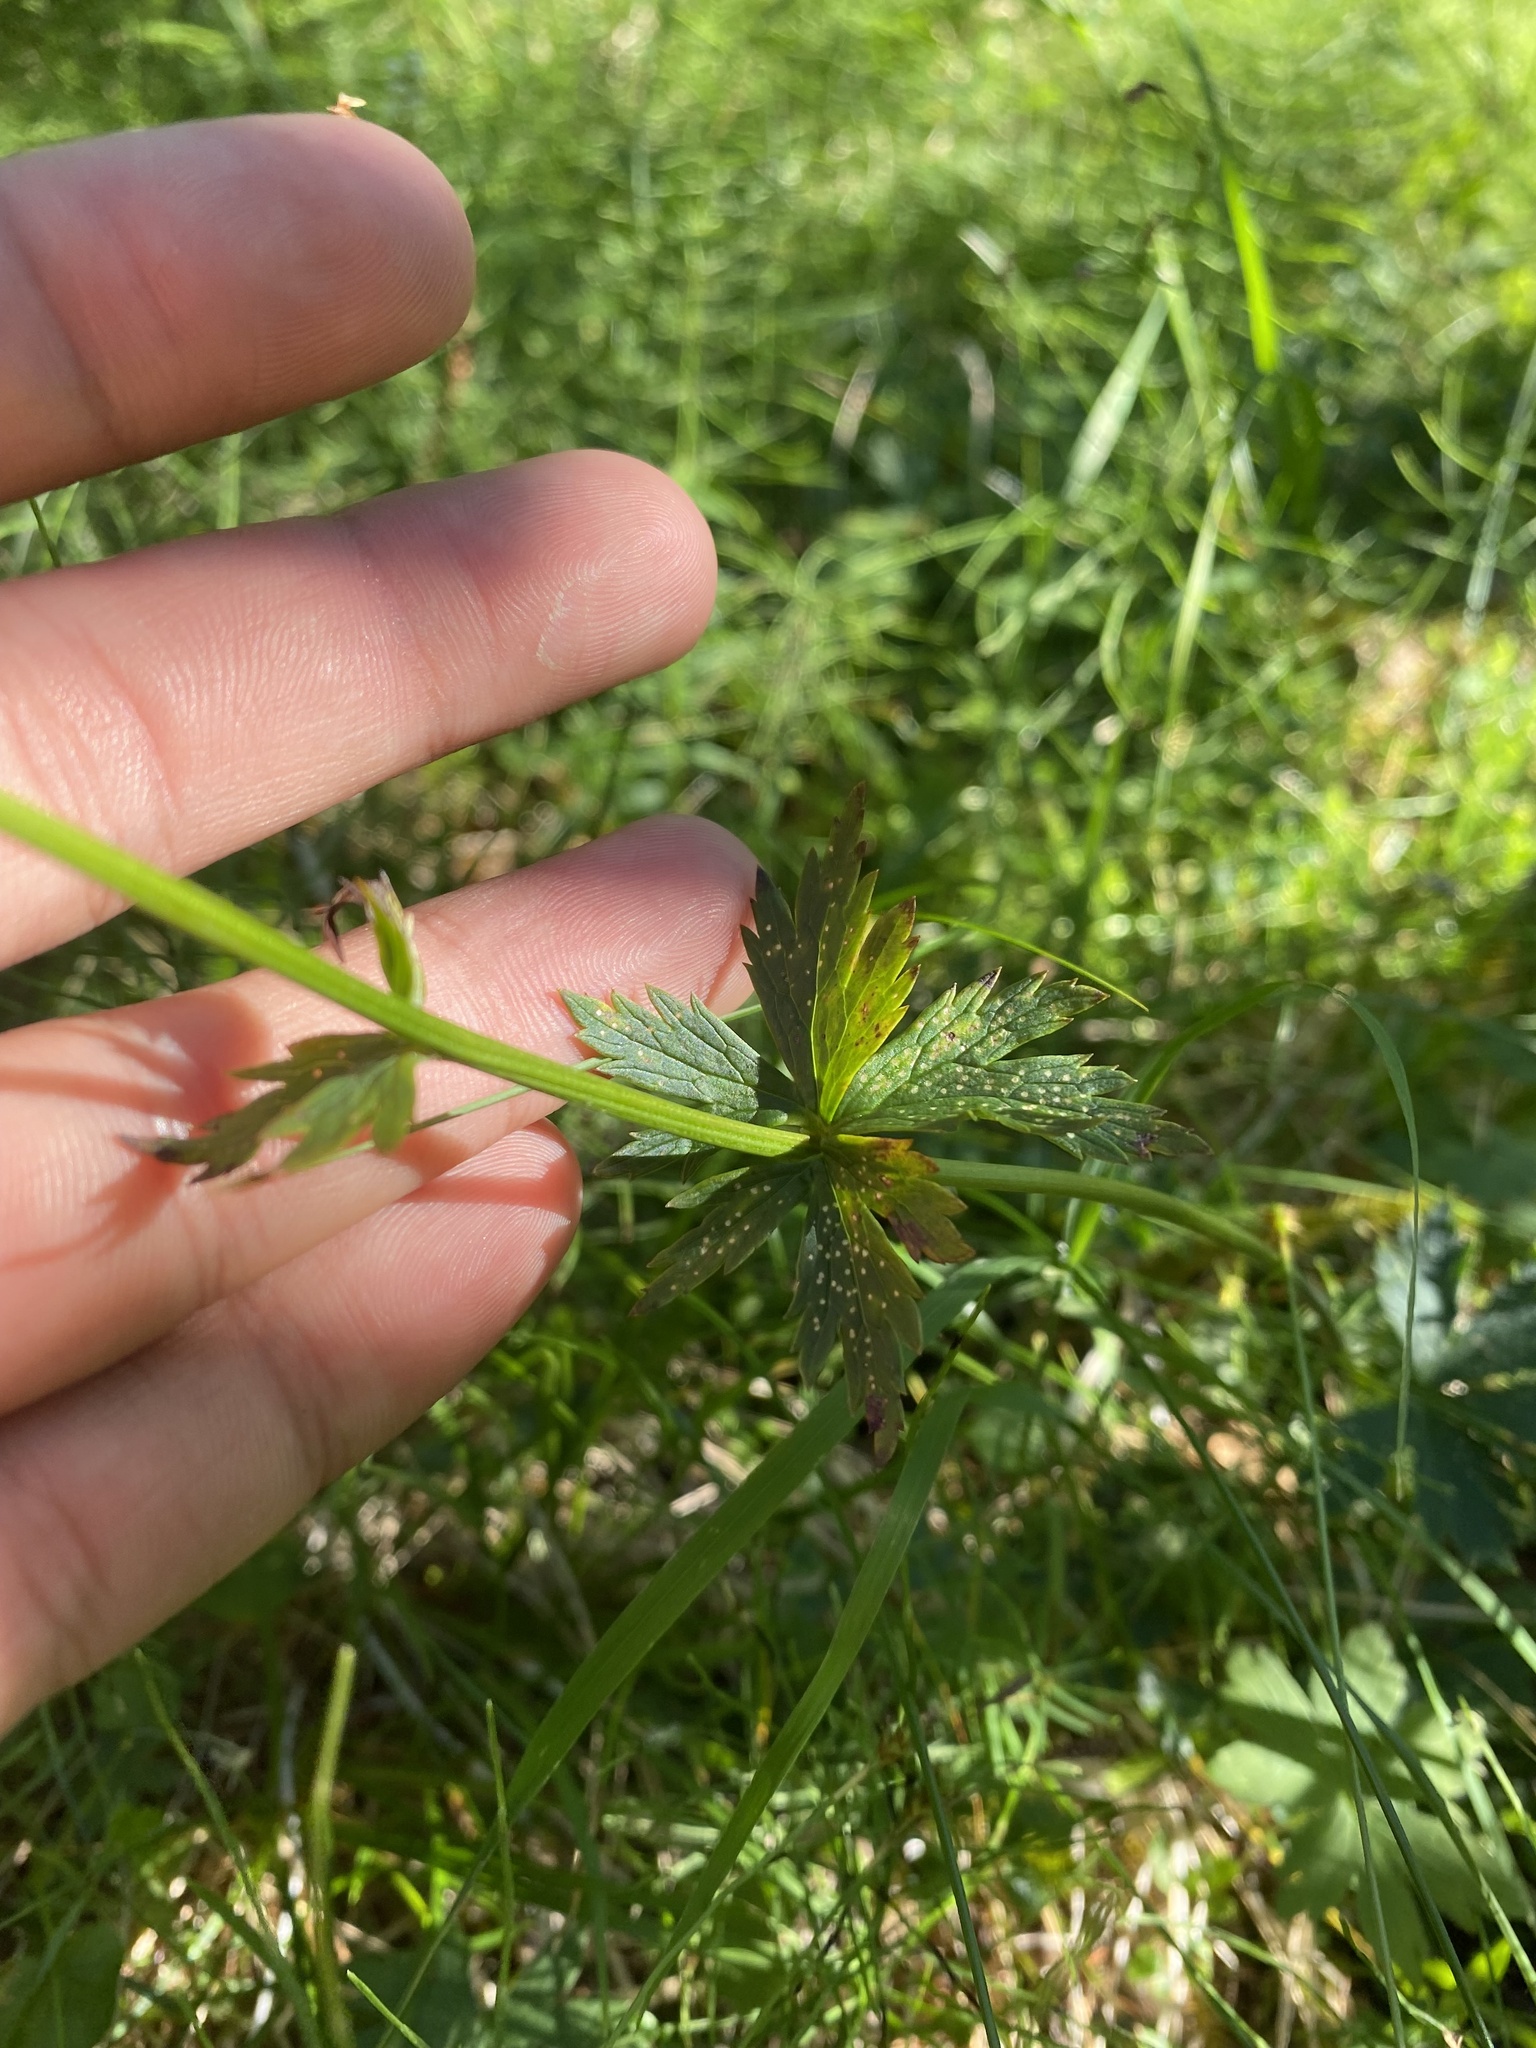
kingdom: Plantae
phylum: Tracheophyta
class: Magnoliopsida
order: Ranunculales
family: Ranunculaceae
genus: Trollius
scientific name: Trollius asiaticus
